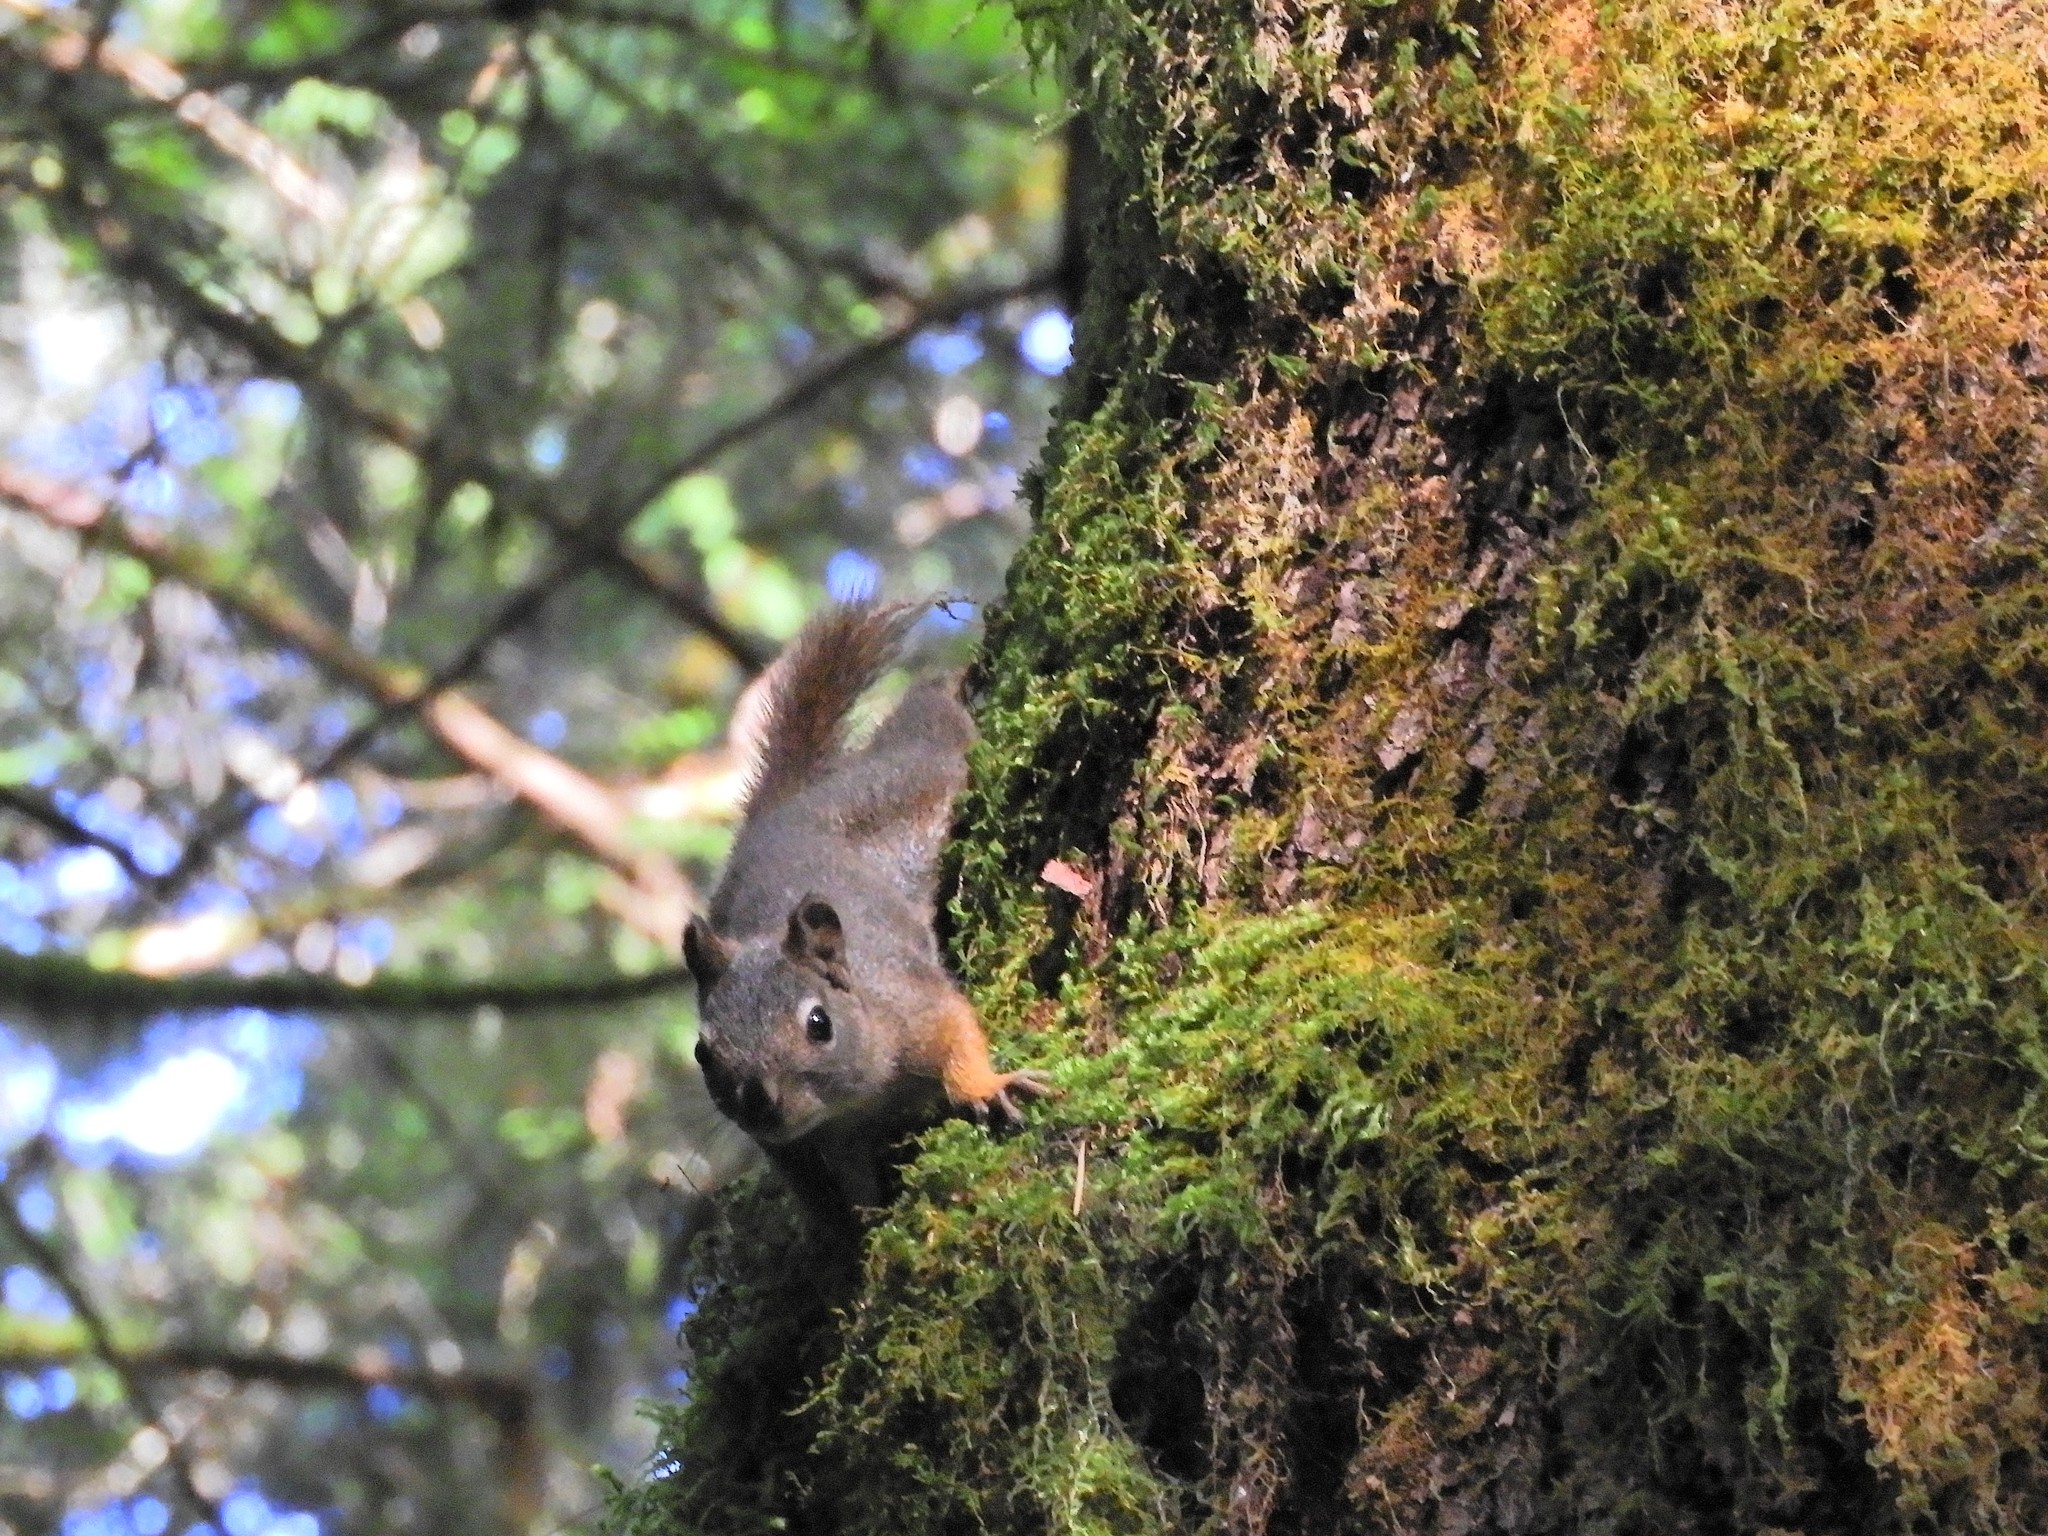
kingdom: Animalia
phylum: Chordata
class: Mammalia
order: Rodentia
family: Sciuridae
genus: Tamiasciurus
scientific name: Tamiasciurus hudsonicus
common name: Red squirrel
